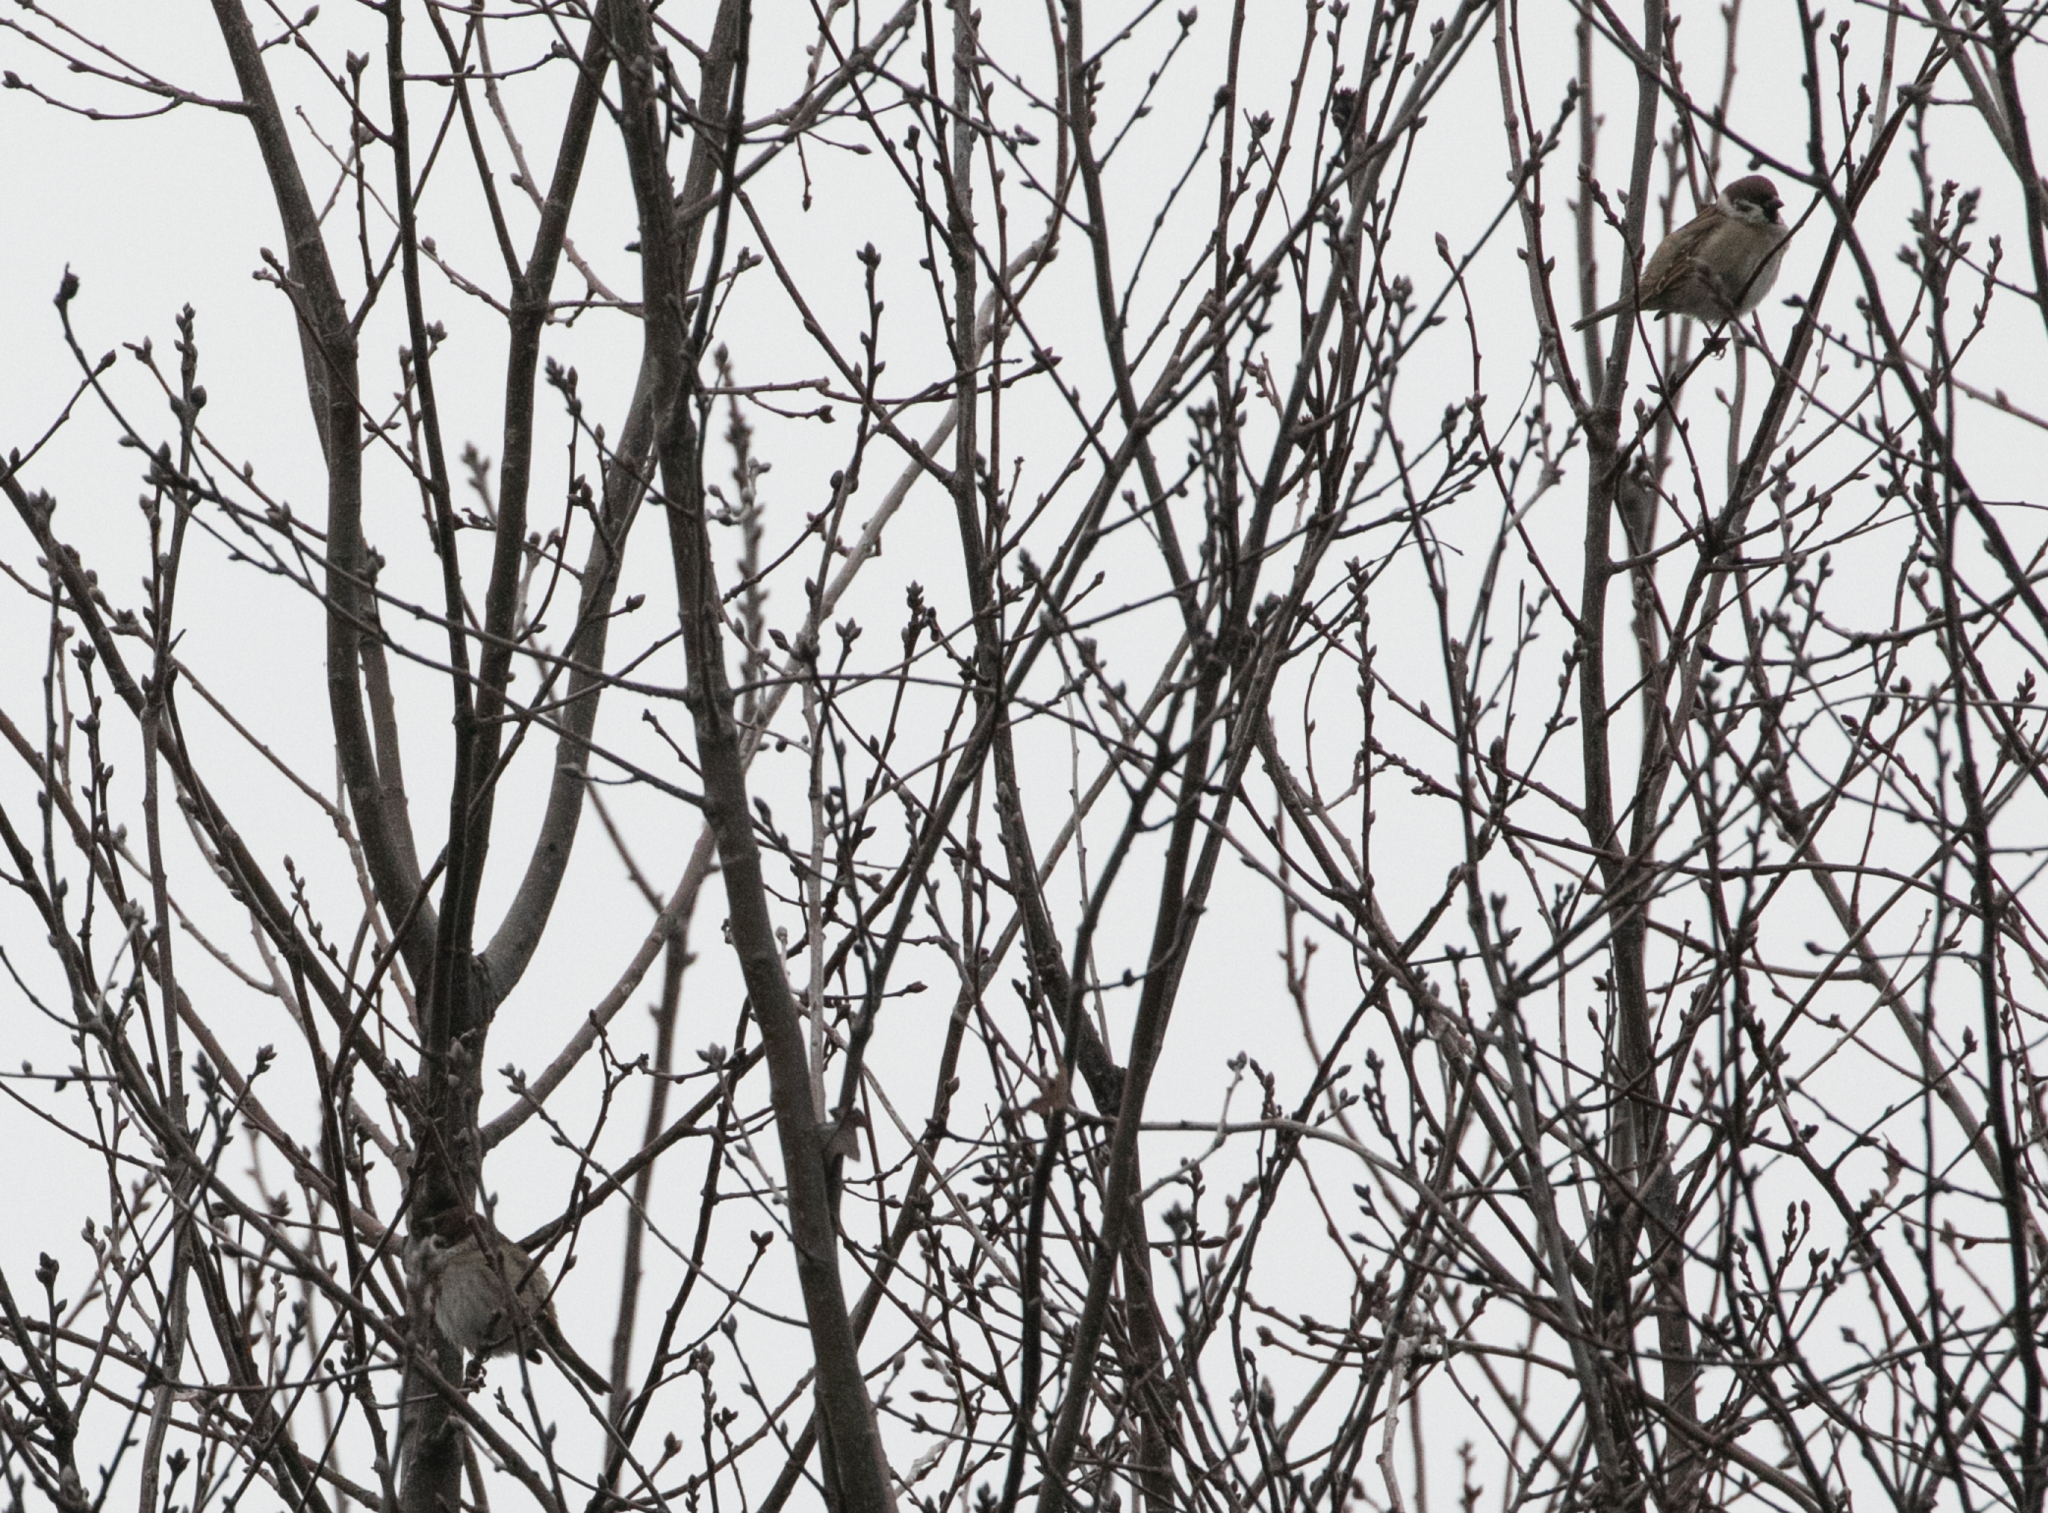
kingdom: Animalia
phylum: Chordata
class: Aves
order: Passeriformes
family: Passeridae
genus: Passer
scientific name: Passer montanus
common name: Eurasian tree sparrow
